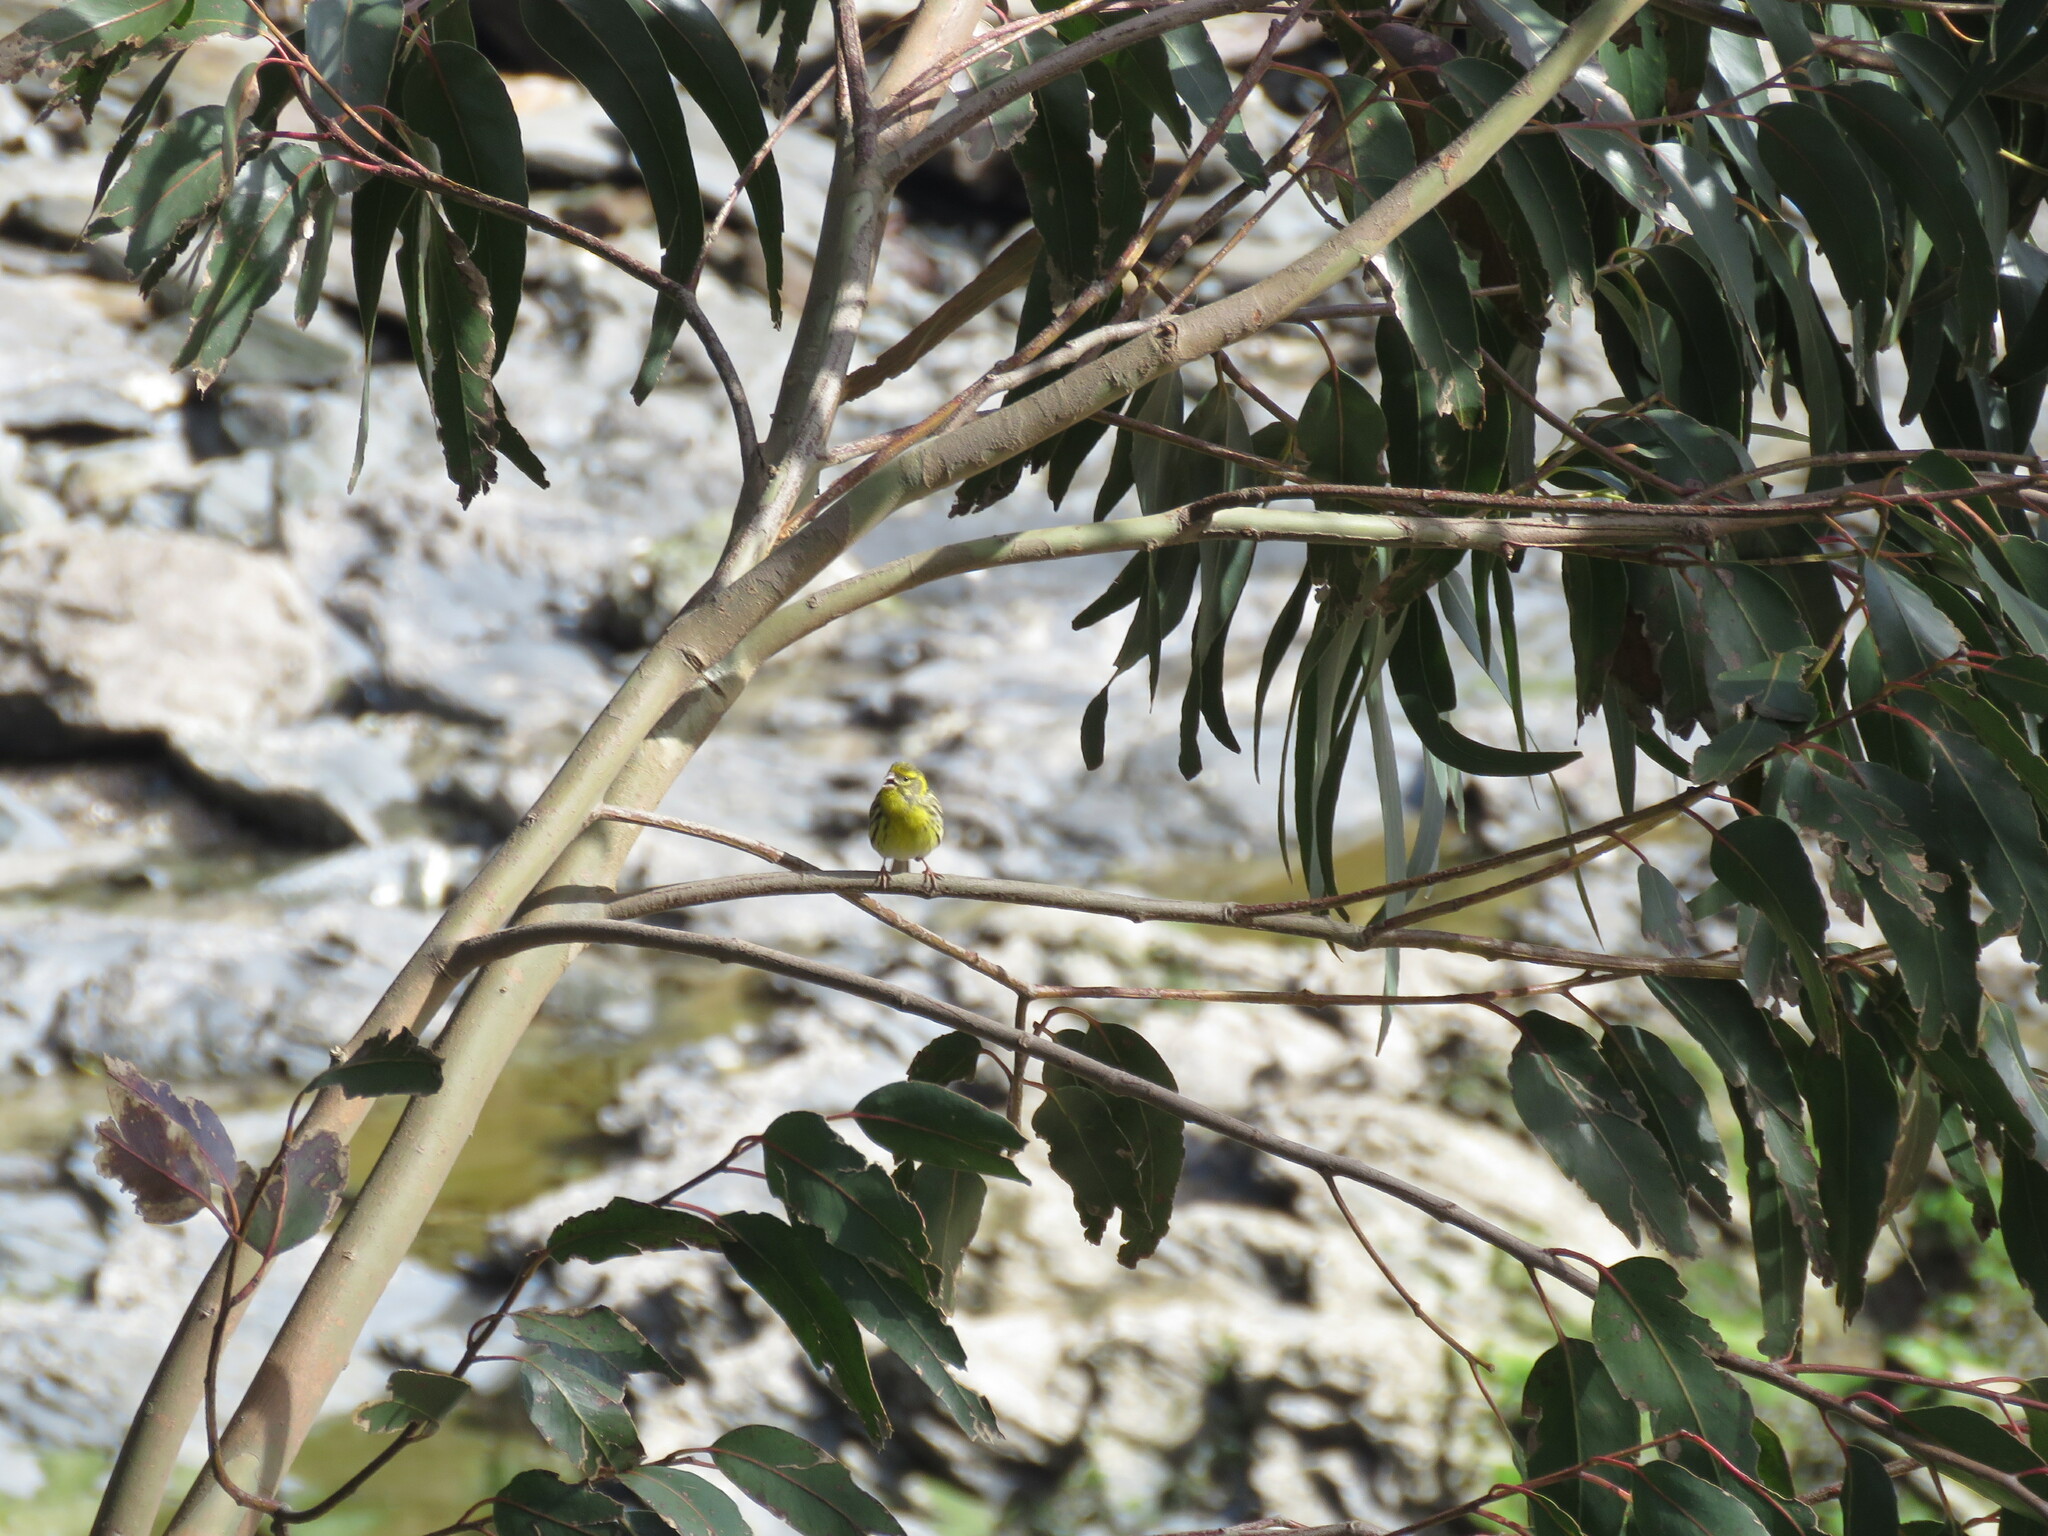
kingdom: Animalia
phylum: Chordata
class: Aves
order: Passeriformes
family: Fringillidae
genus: Serinus
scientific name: Serinus serinus
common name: European serin
